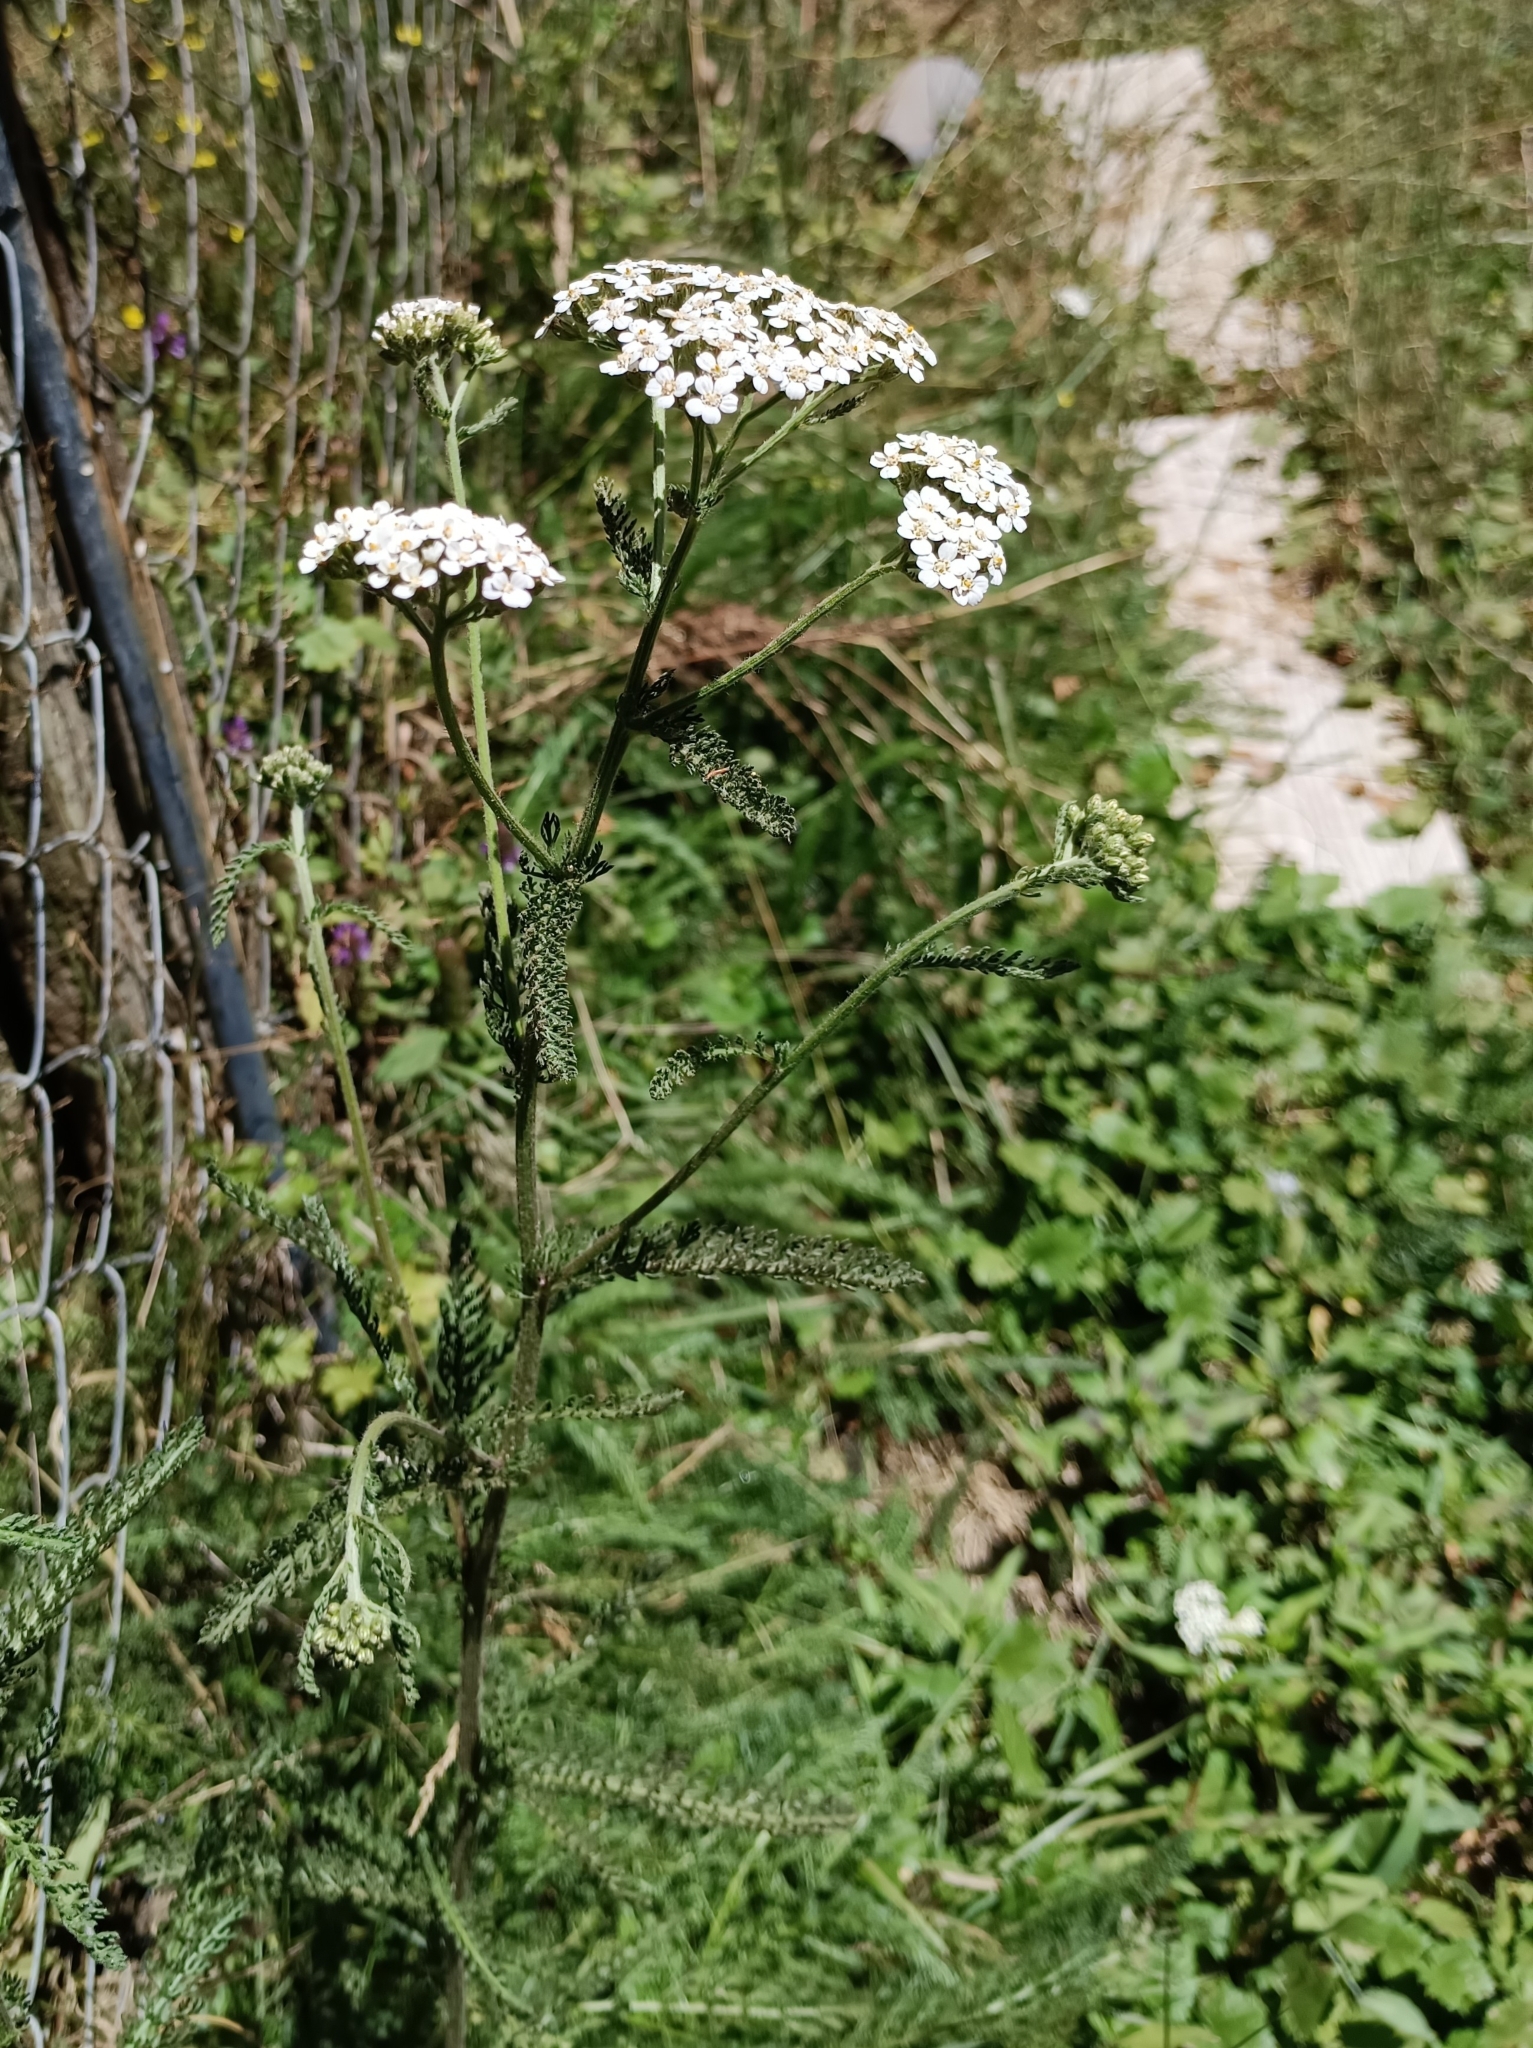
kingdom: Plantae
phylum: Tracheophyta
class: Magnoliopsida
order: Asterales
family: Asteraceae
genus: Achillea
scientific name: Achillea millefolium
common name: Yarrow
